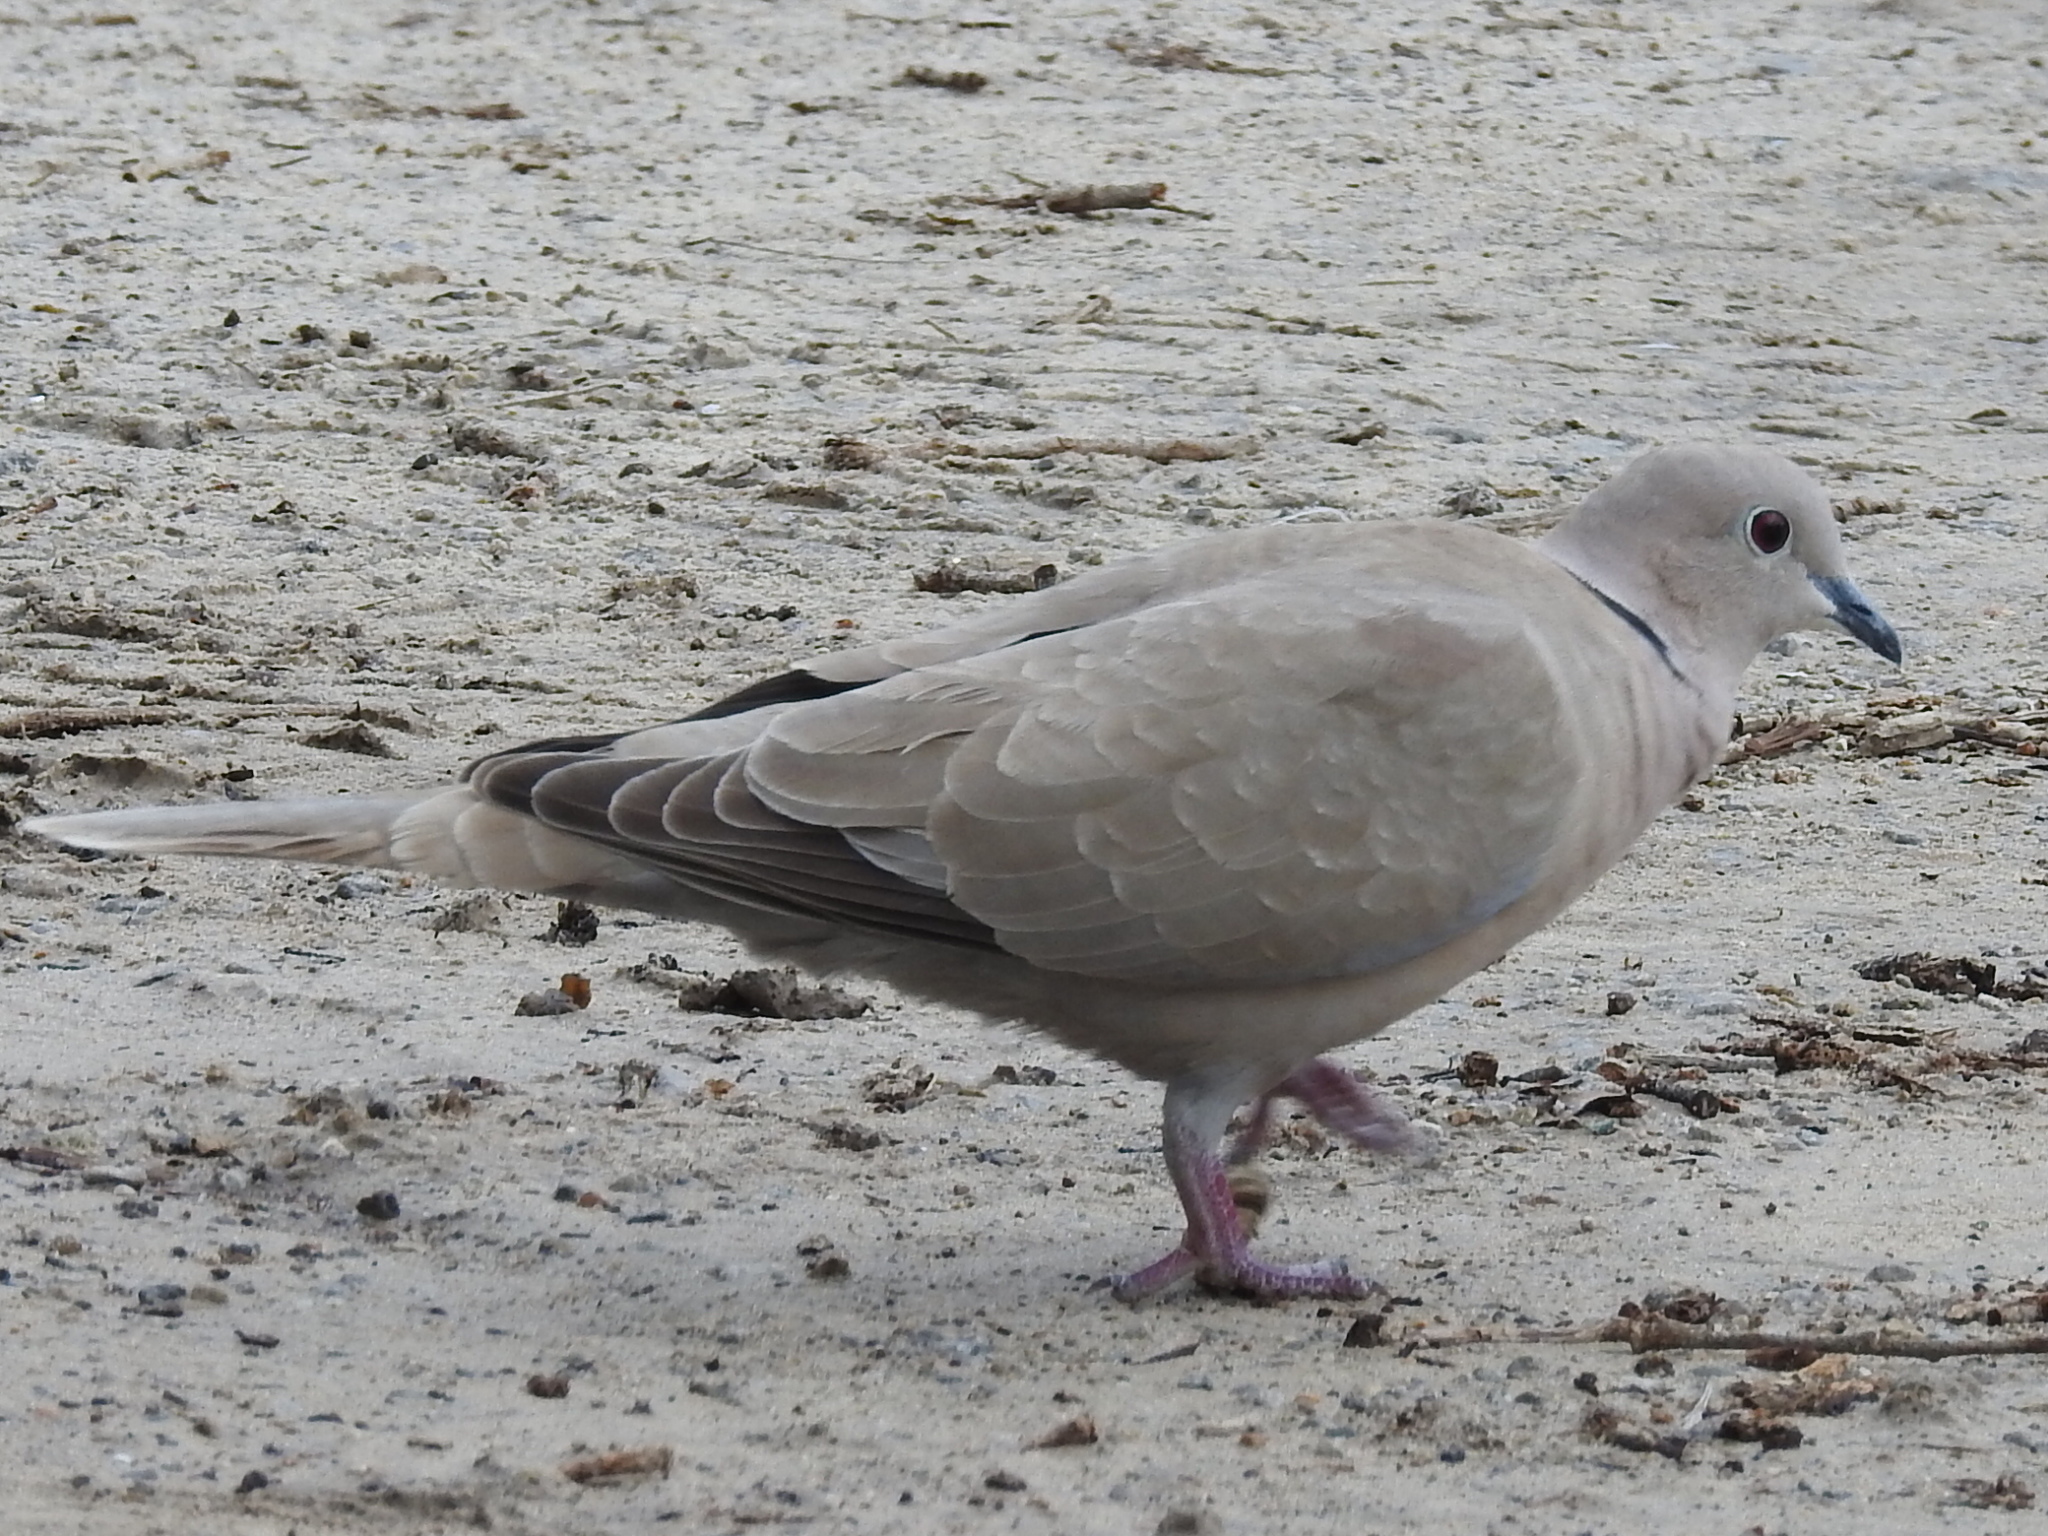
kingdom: Animalia
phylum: Chordata
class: Aves
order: Columbiformes
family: Columbidae
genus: Streptopelia
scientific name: Streptopelia decaocto
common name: Eurasian collared dove
